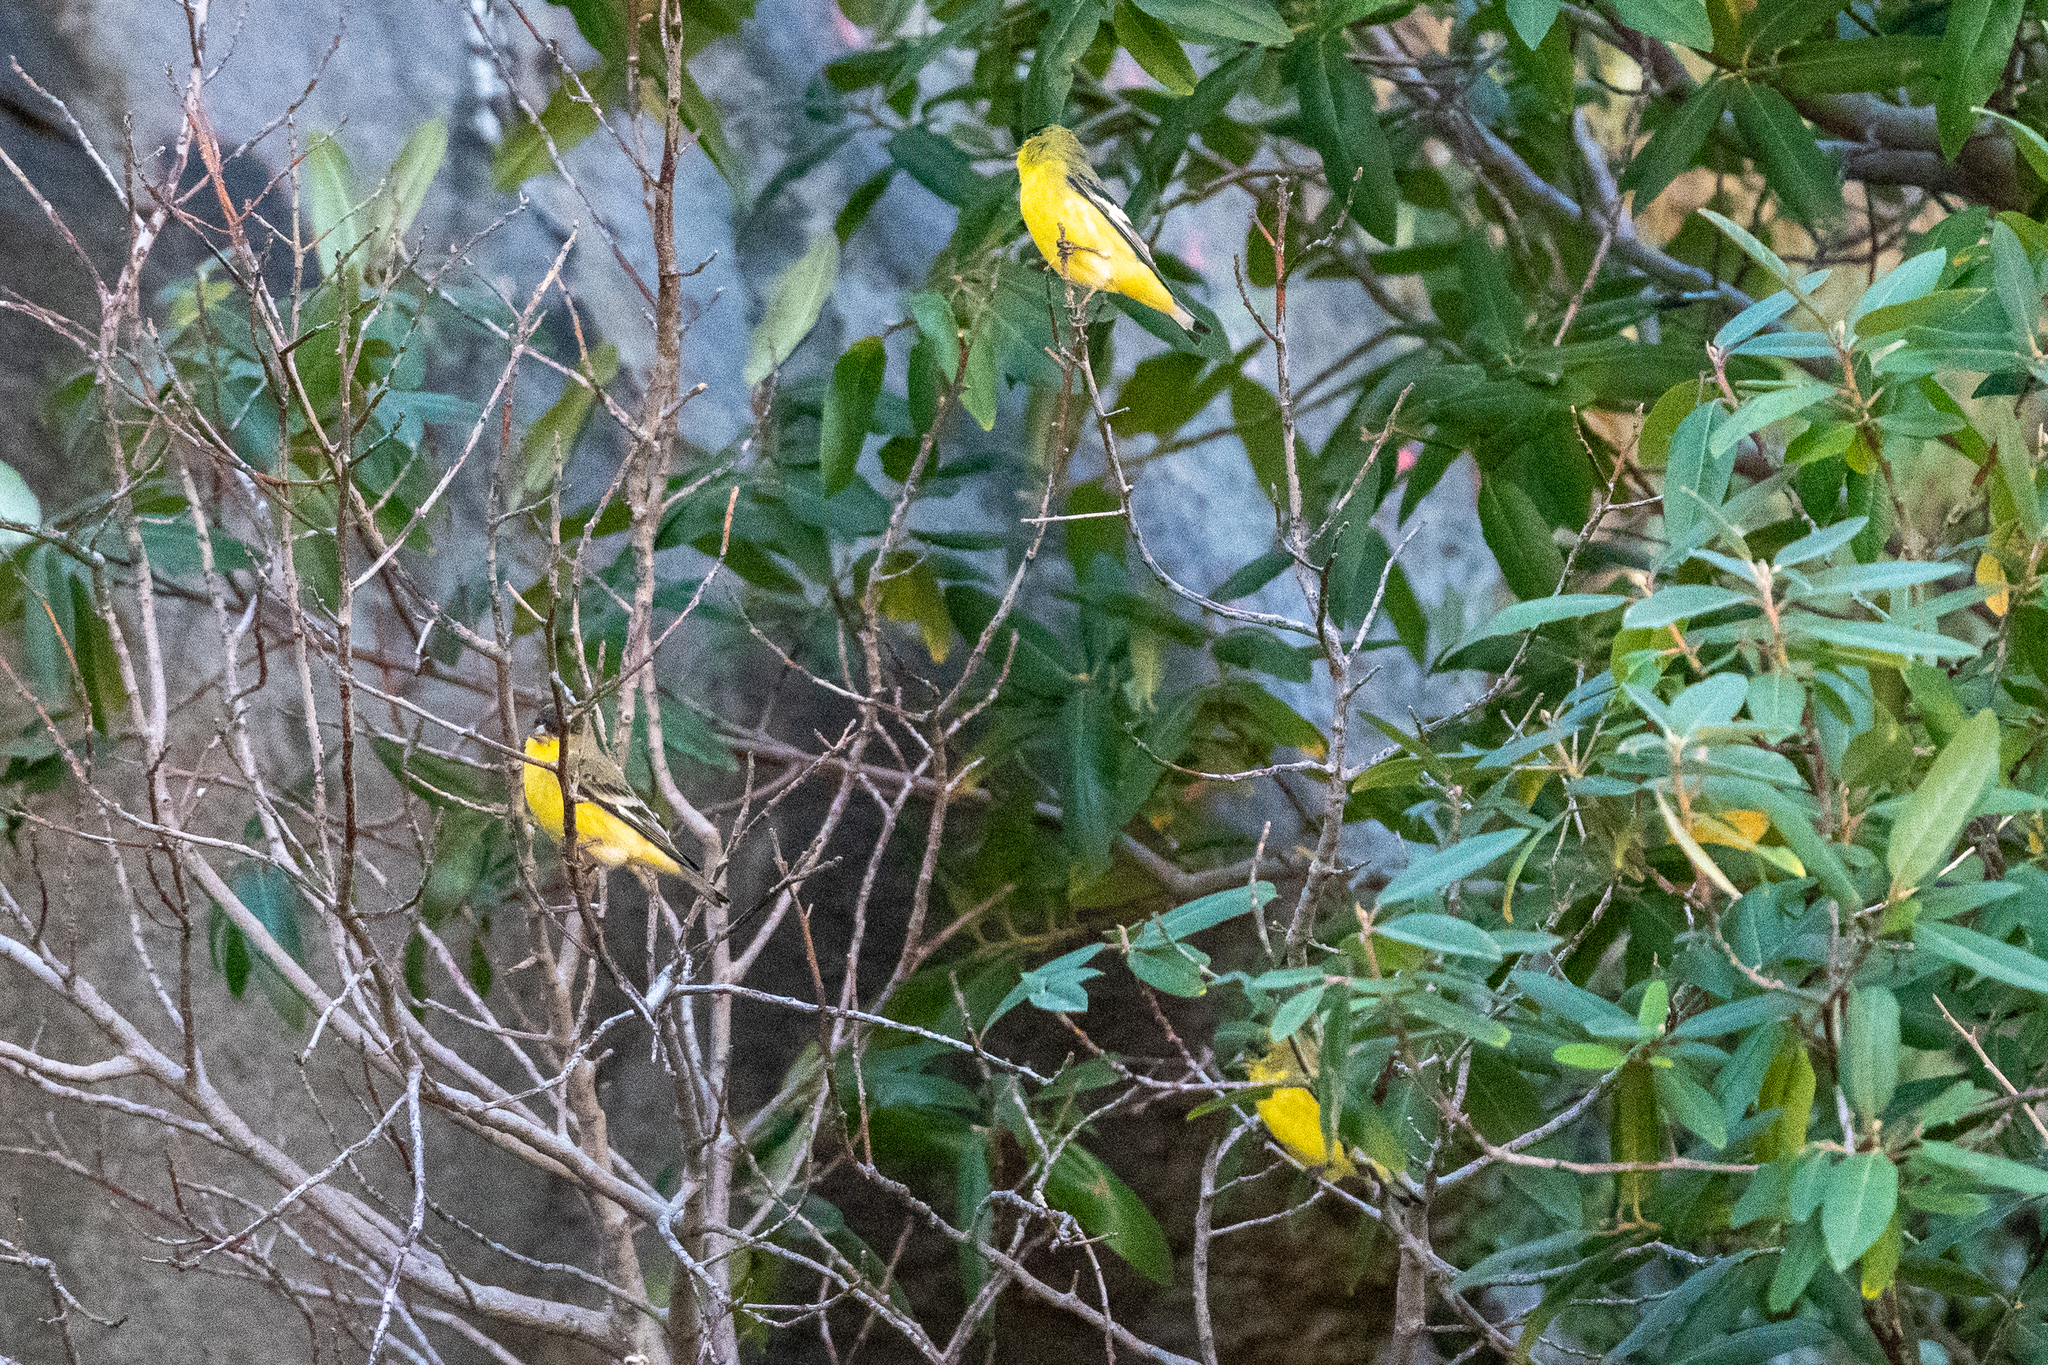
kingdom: Animalia
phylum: Chordata
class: Aves
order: Passeriformes
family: Fringillidae
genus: Spinus
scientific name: Spinus psaltria
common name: Lesser goldfinch
